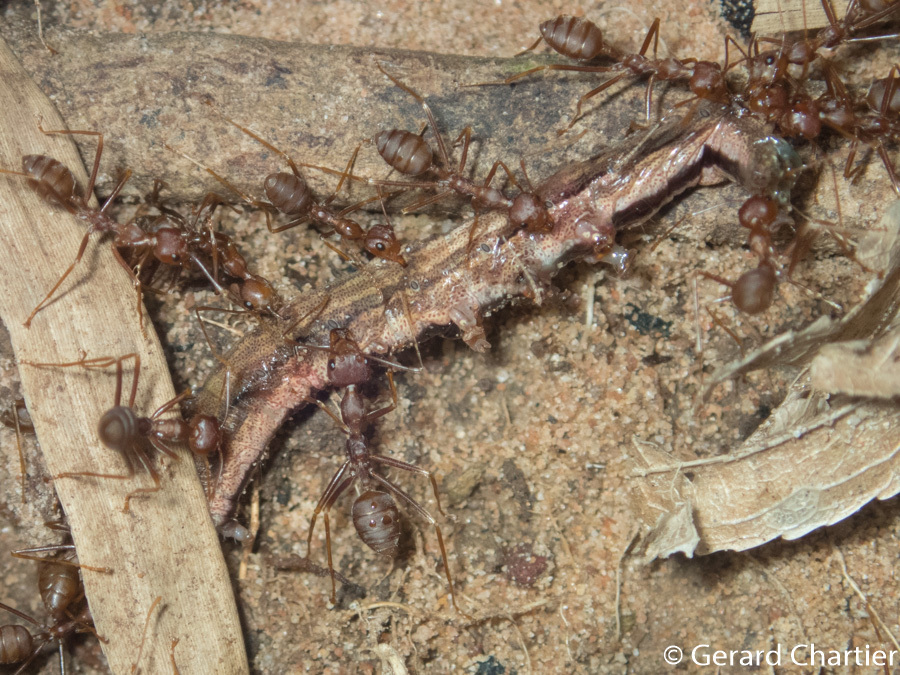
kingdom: Animalia
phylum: Arthropoda
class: Insecta
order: Hymenoptera
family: Formicidae
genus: Oecophylla
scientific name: Oecophylla smaragdina
